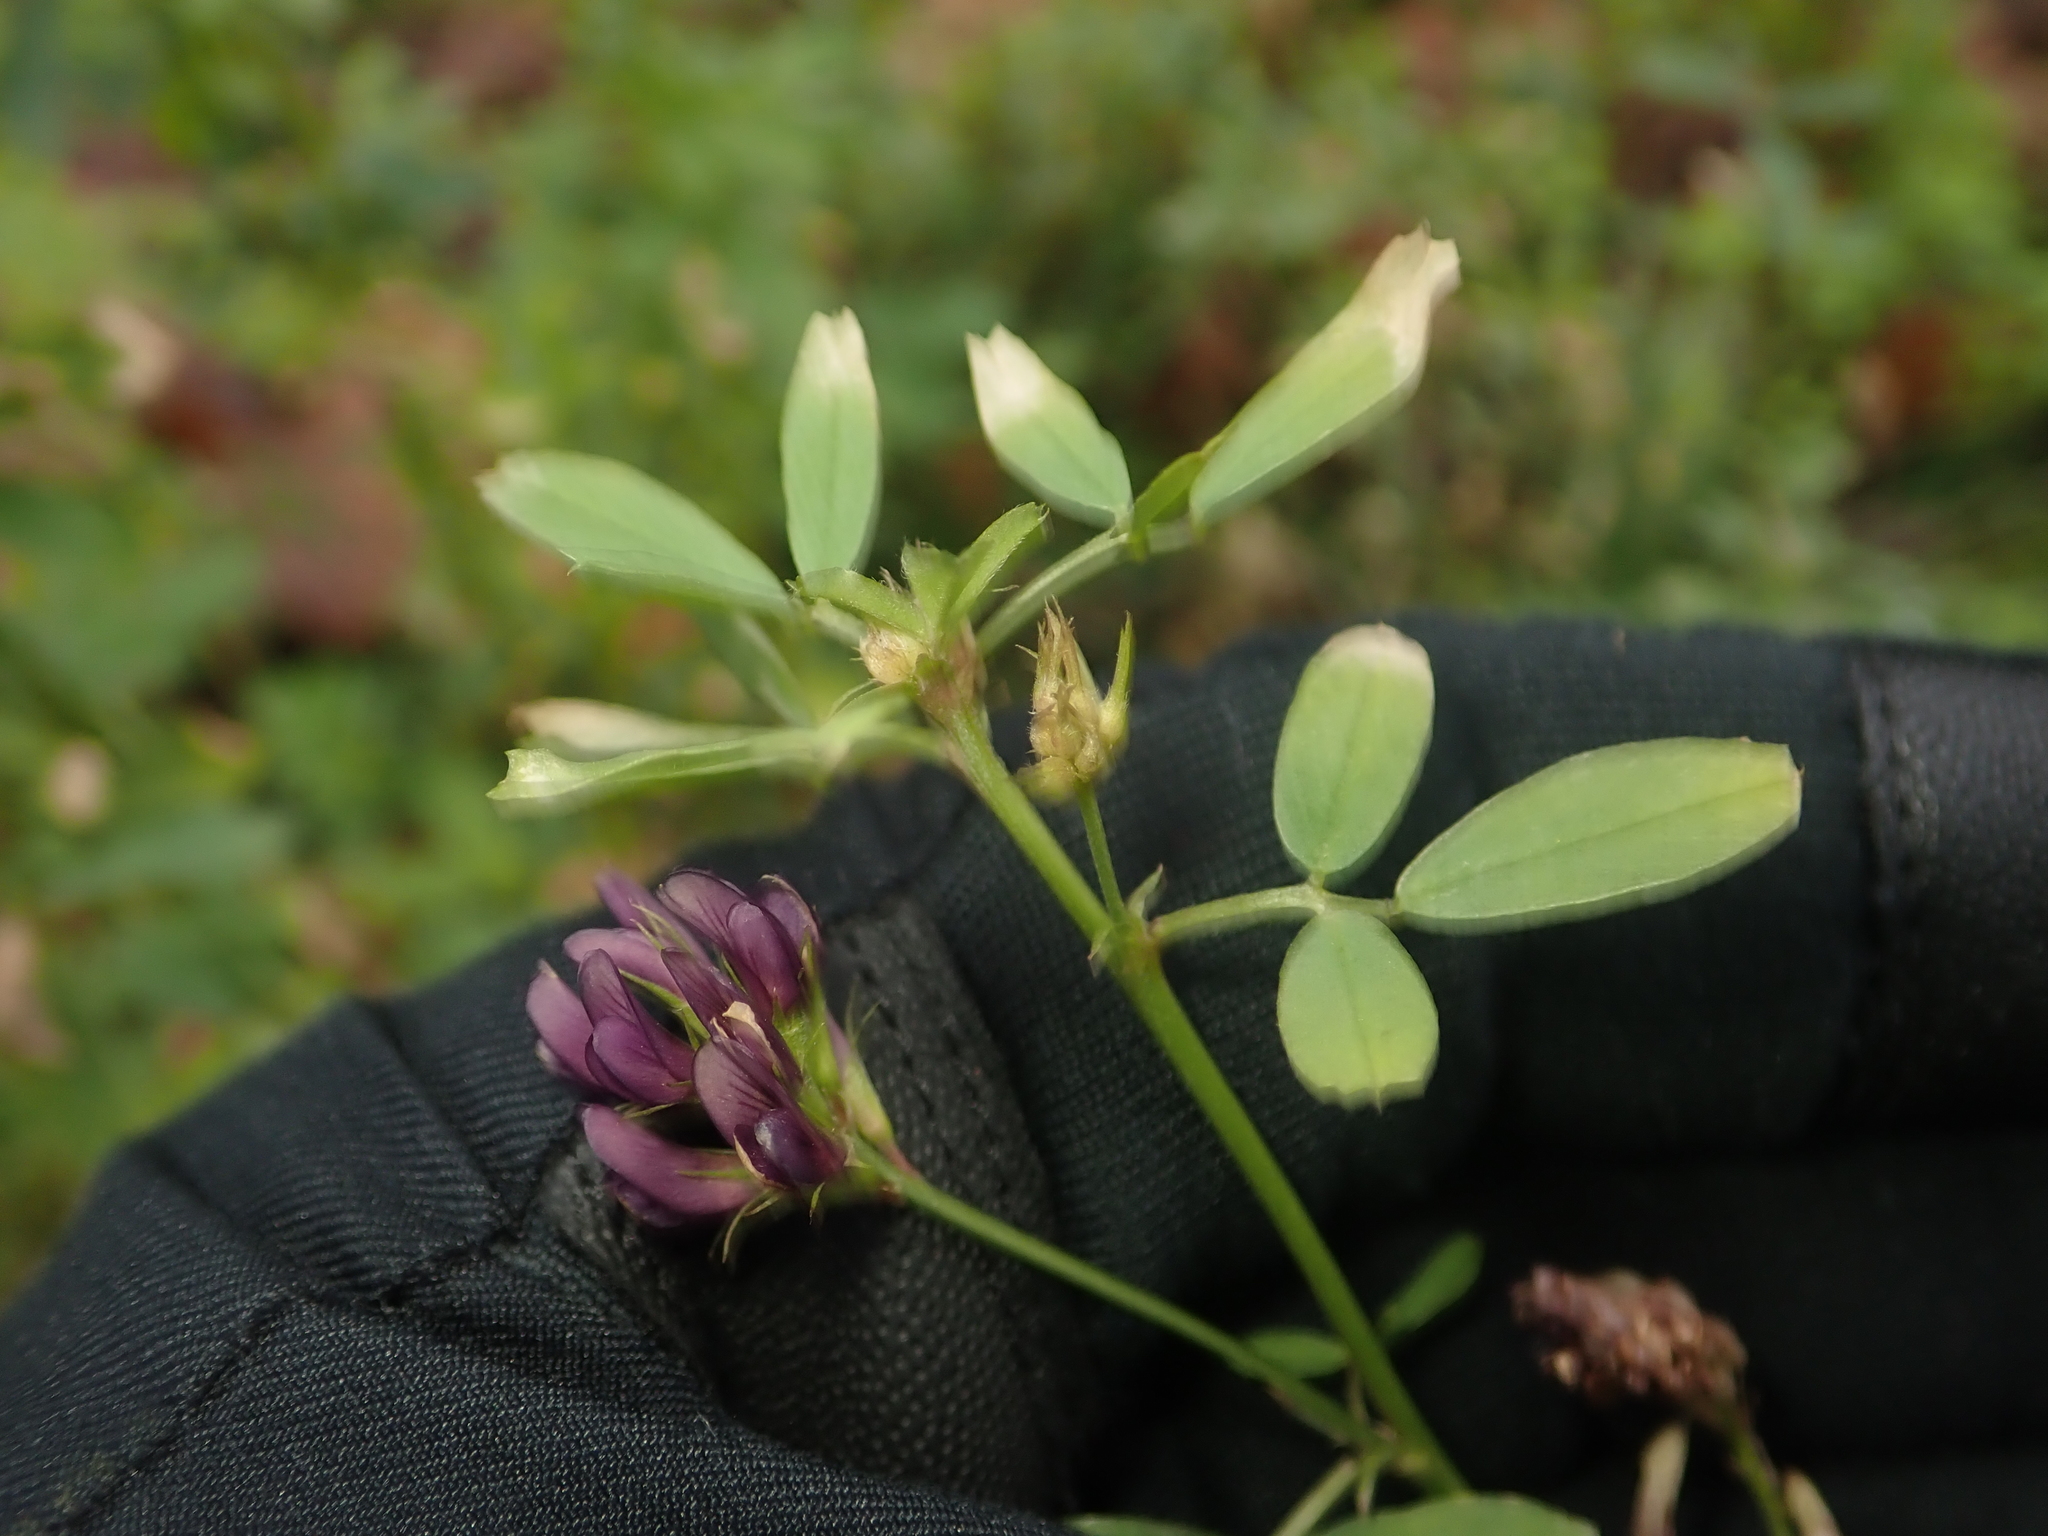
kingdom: Plantae
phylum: Tracheophyta
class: Magnoliopsida
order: Fabales
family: Fabaceae
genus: Medicago
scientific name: Medicago varia
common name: Sand lucerne
